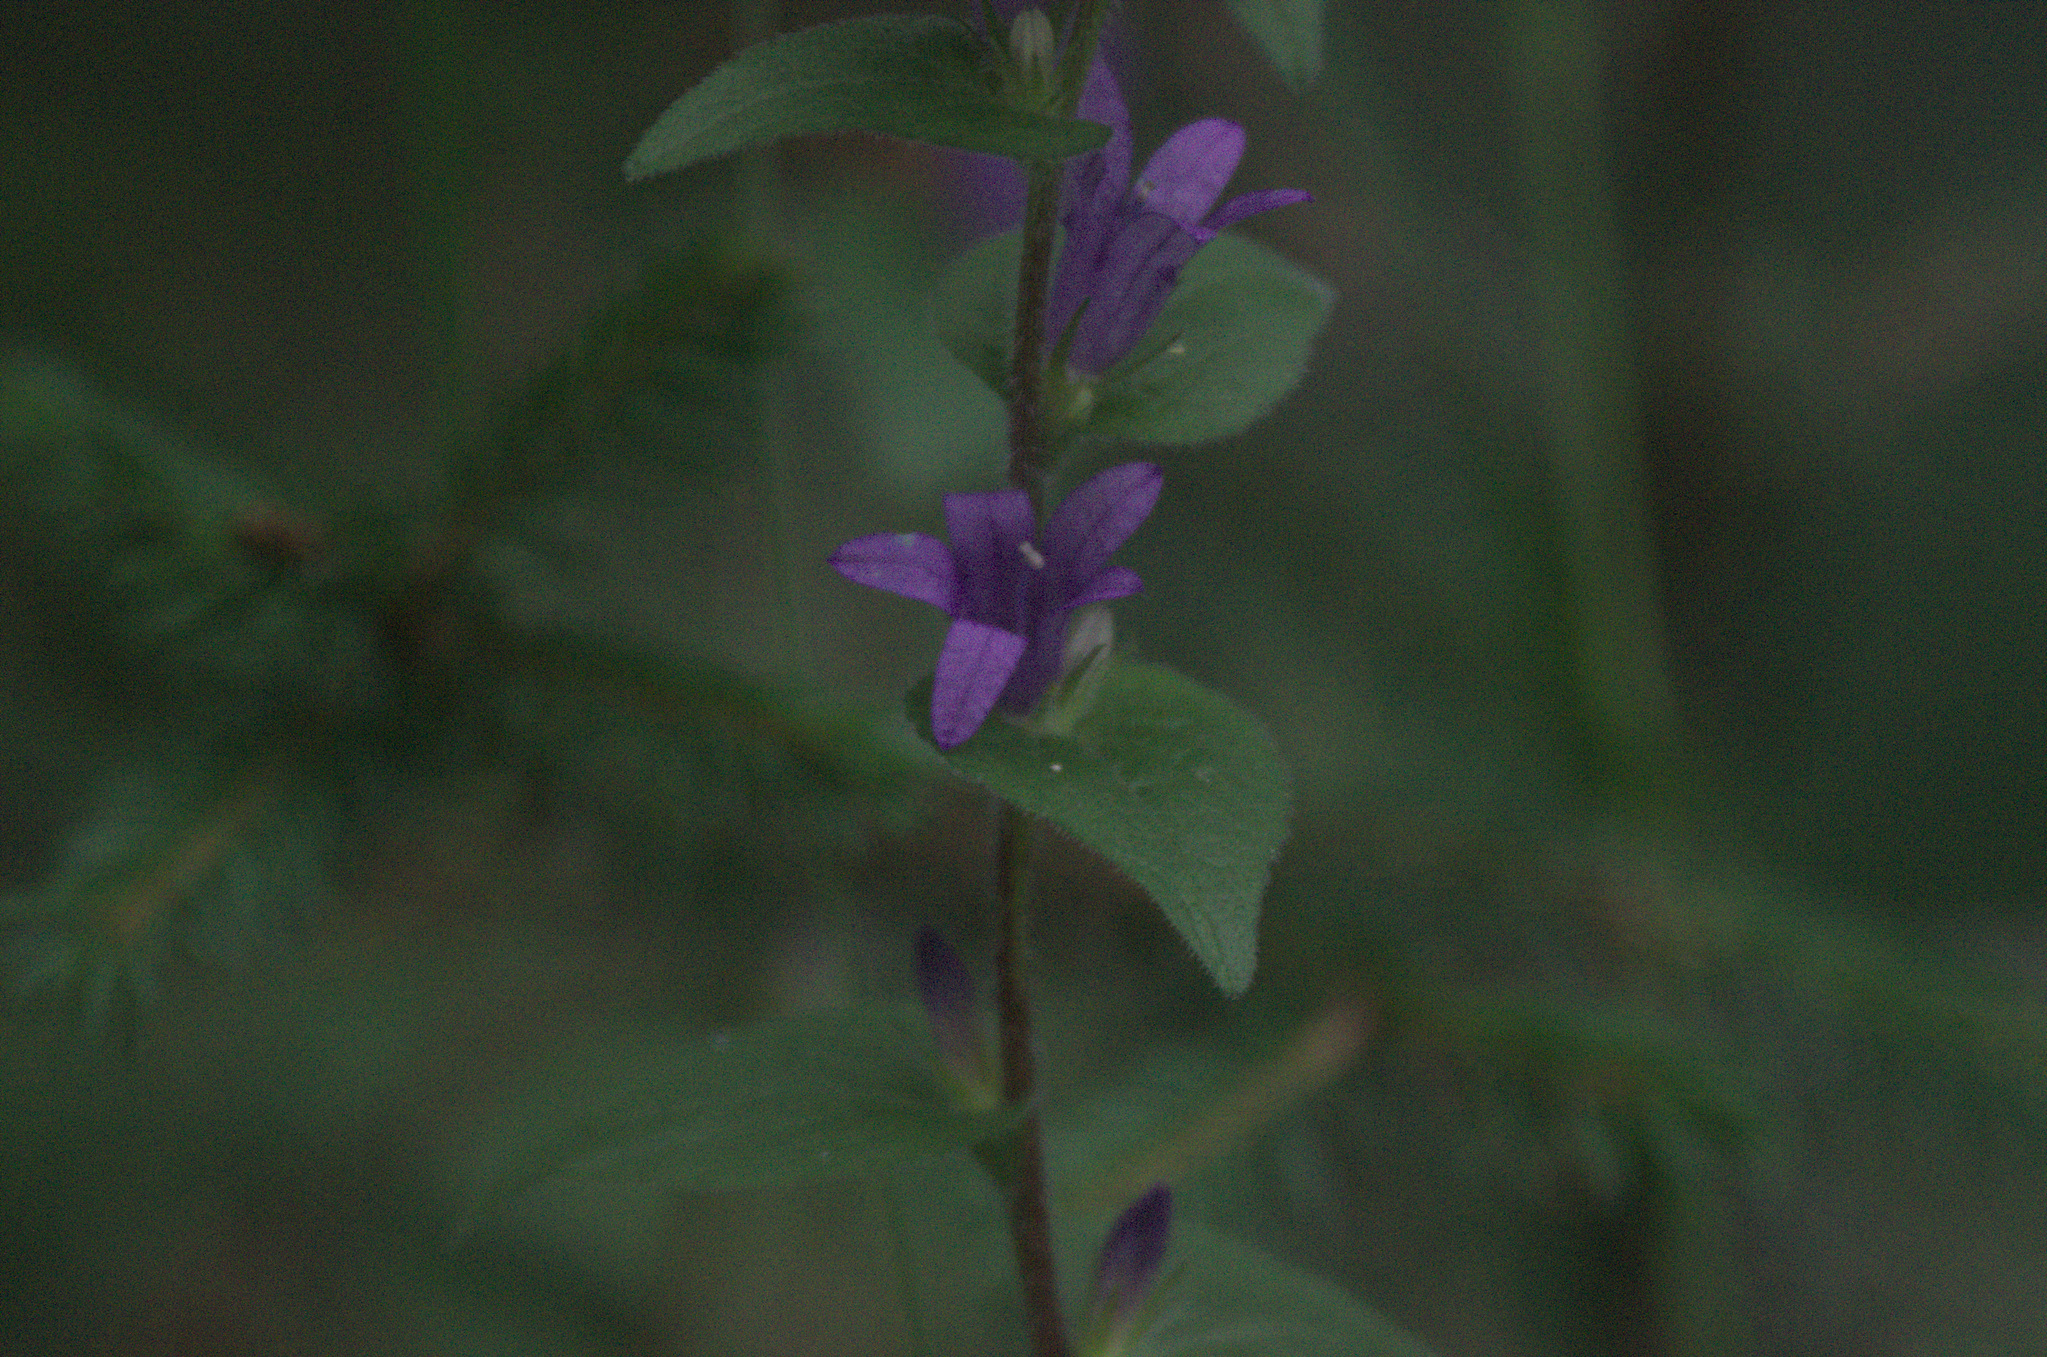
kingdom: Plantae
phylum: Tracheophyta
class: Magnoliopsida
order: Asterales
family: Campanulaceae
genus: Campanula
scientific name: Campanula glomerata
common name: Clustered bellflower
